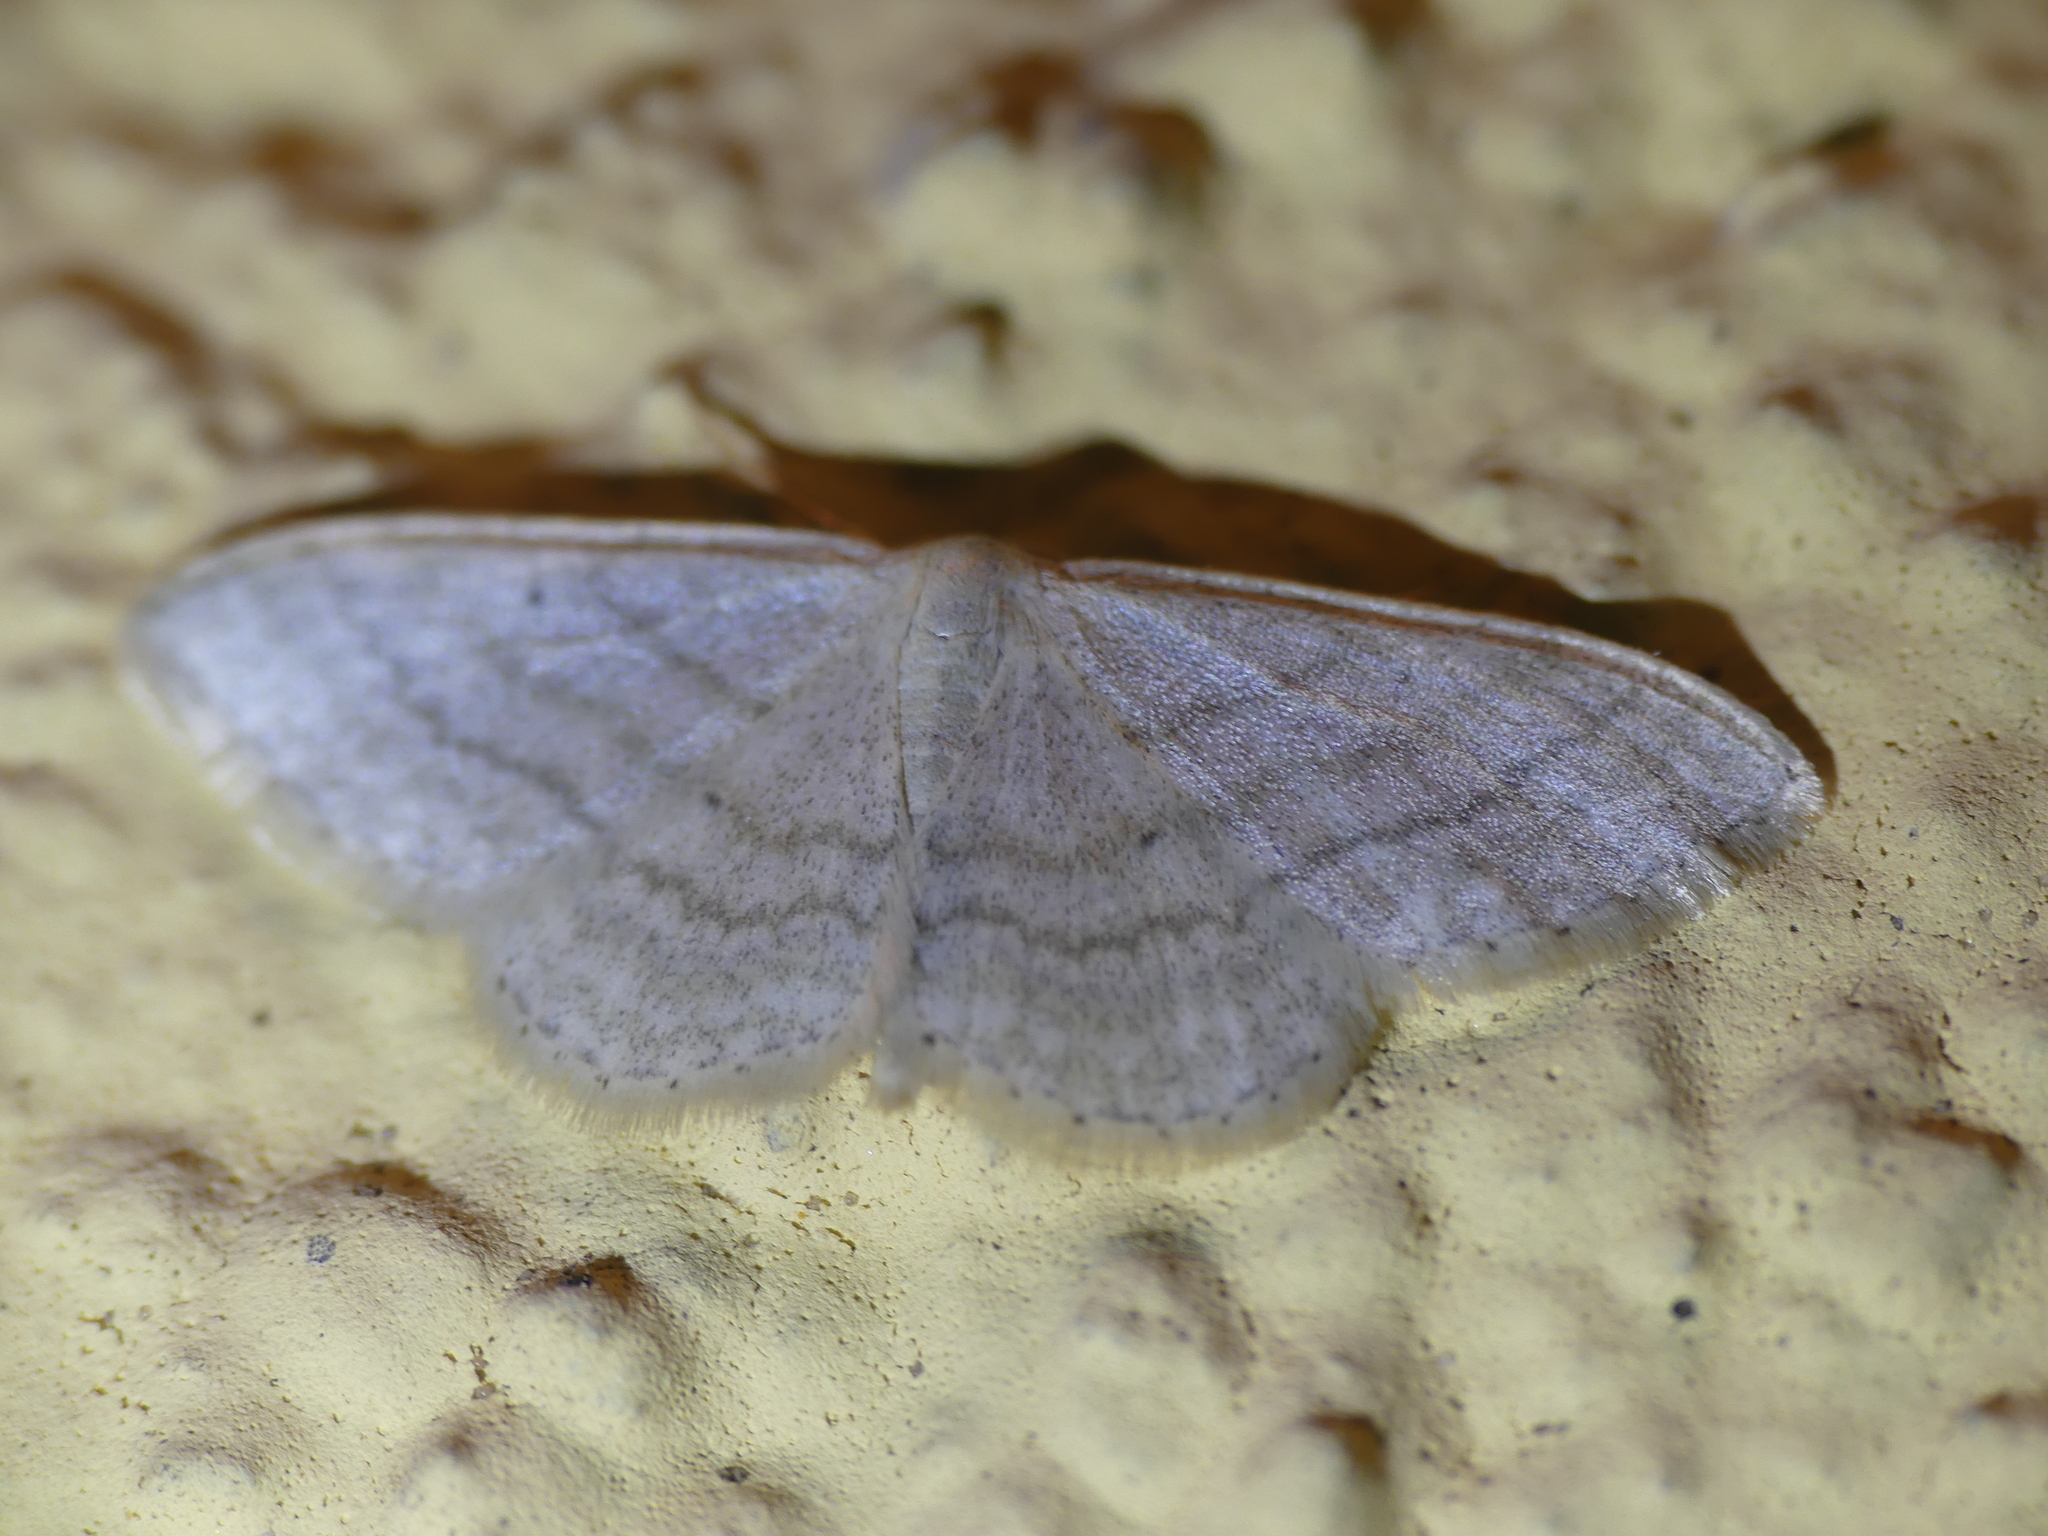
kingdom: Animalia
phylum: Arthropoda
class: Insecta
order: Lepidoptera
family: Geometridae
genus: Idaea
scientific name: Idaea subsericeata
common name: Satin wave
